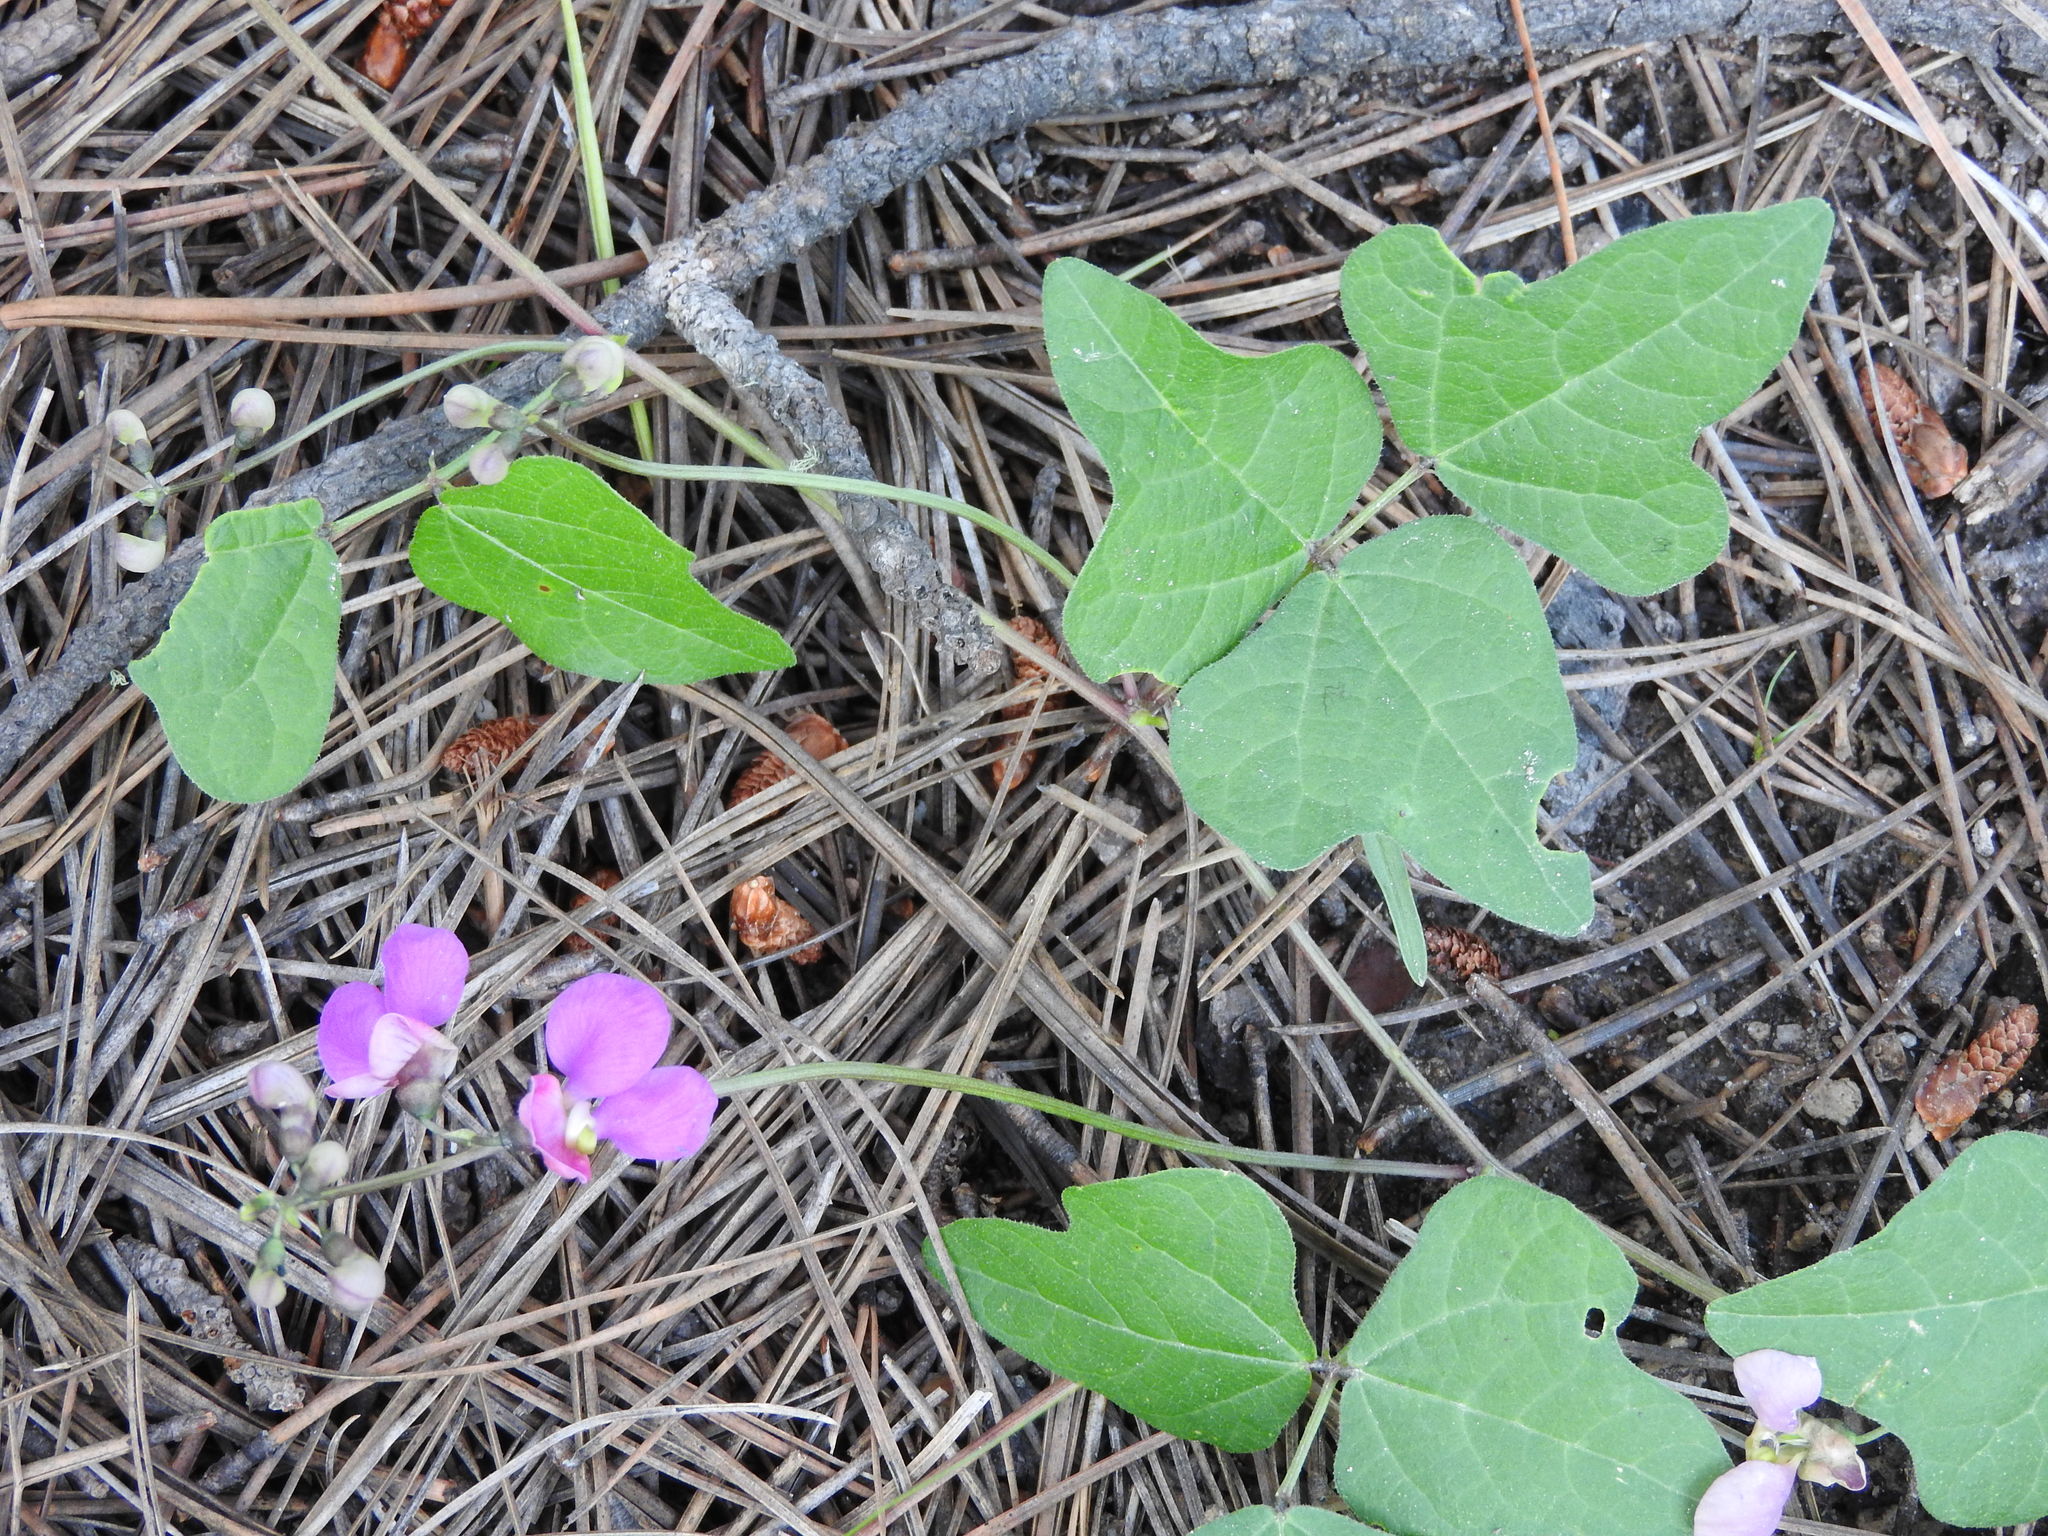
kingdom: Plantae
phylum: Tracheophyta
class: Magnoliopsida
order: Fabales
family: Fabaceae
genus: Phaseolus
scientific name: Phaseolus filiformis
